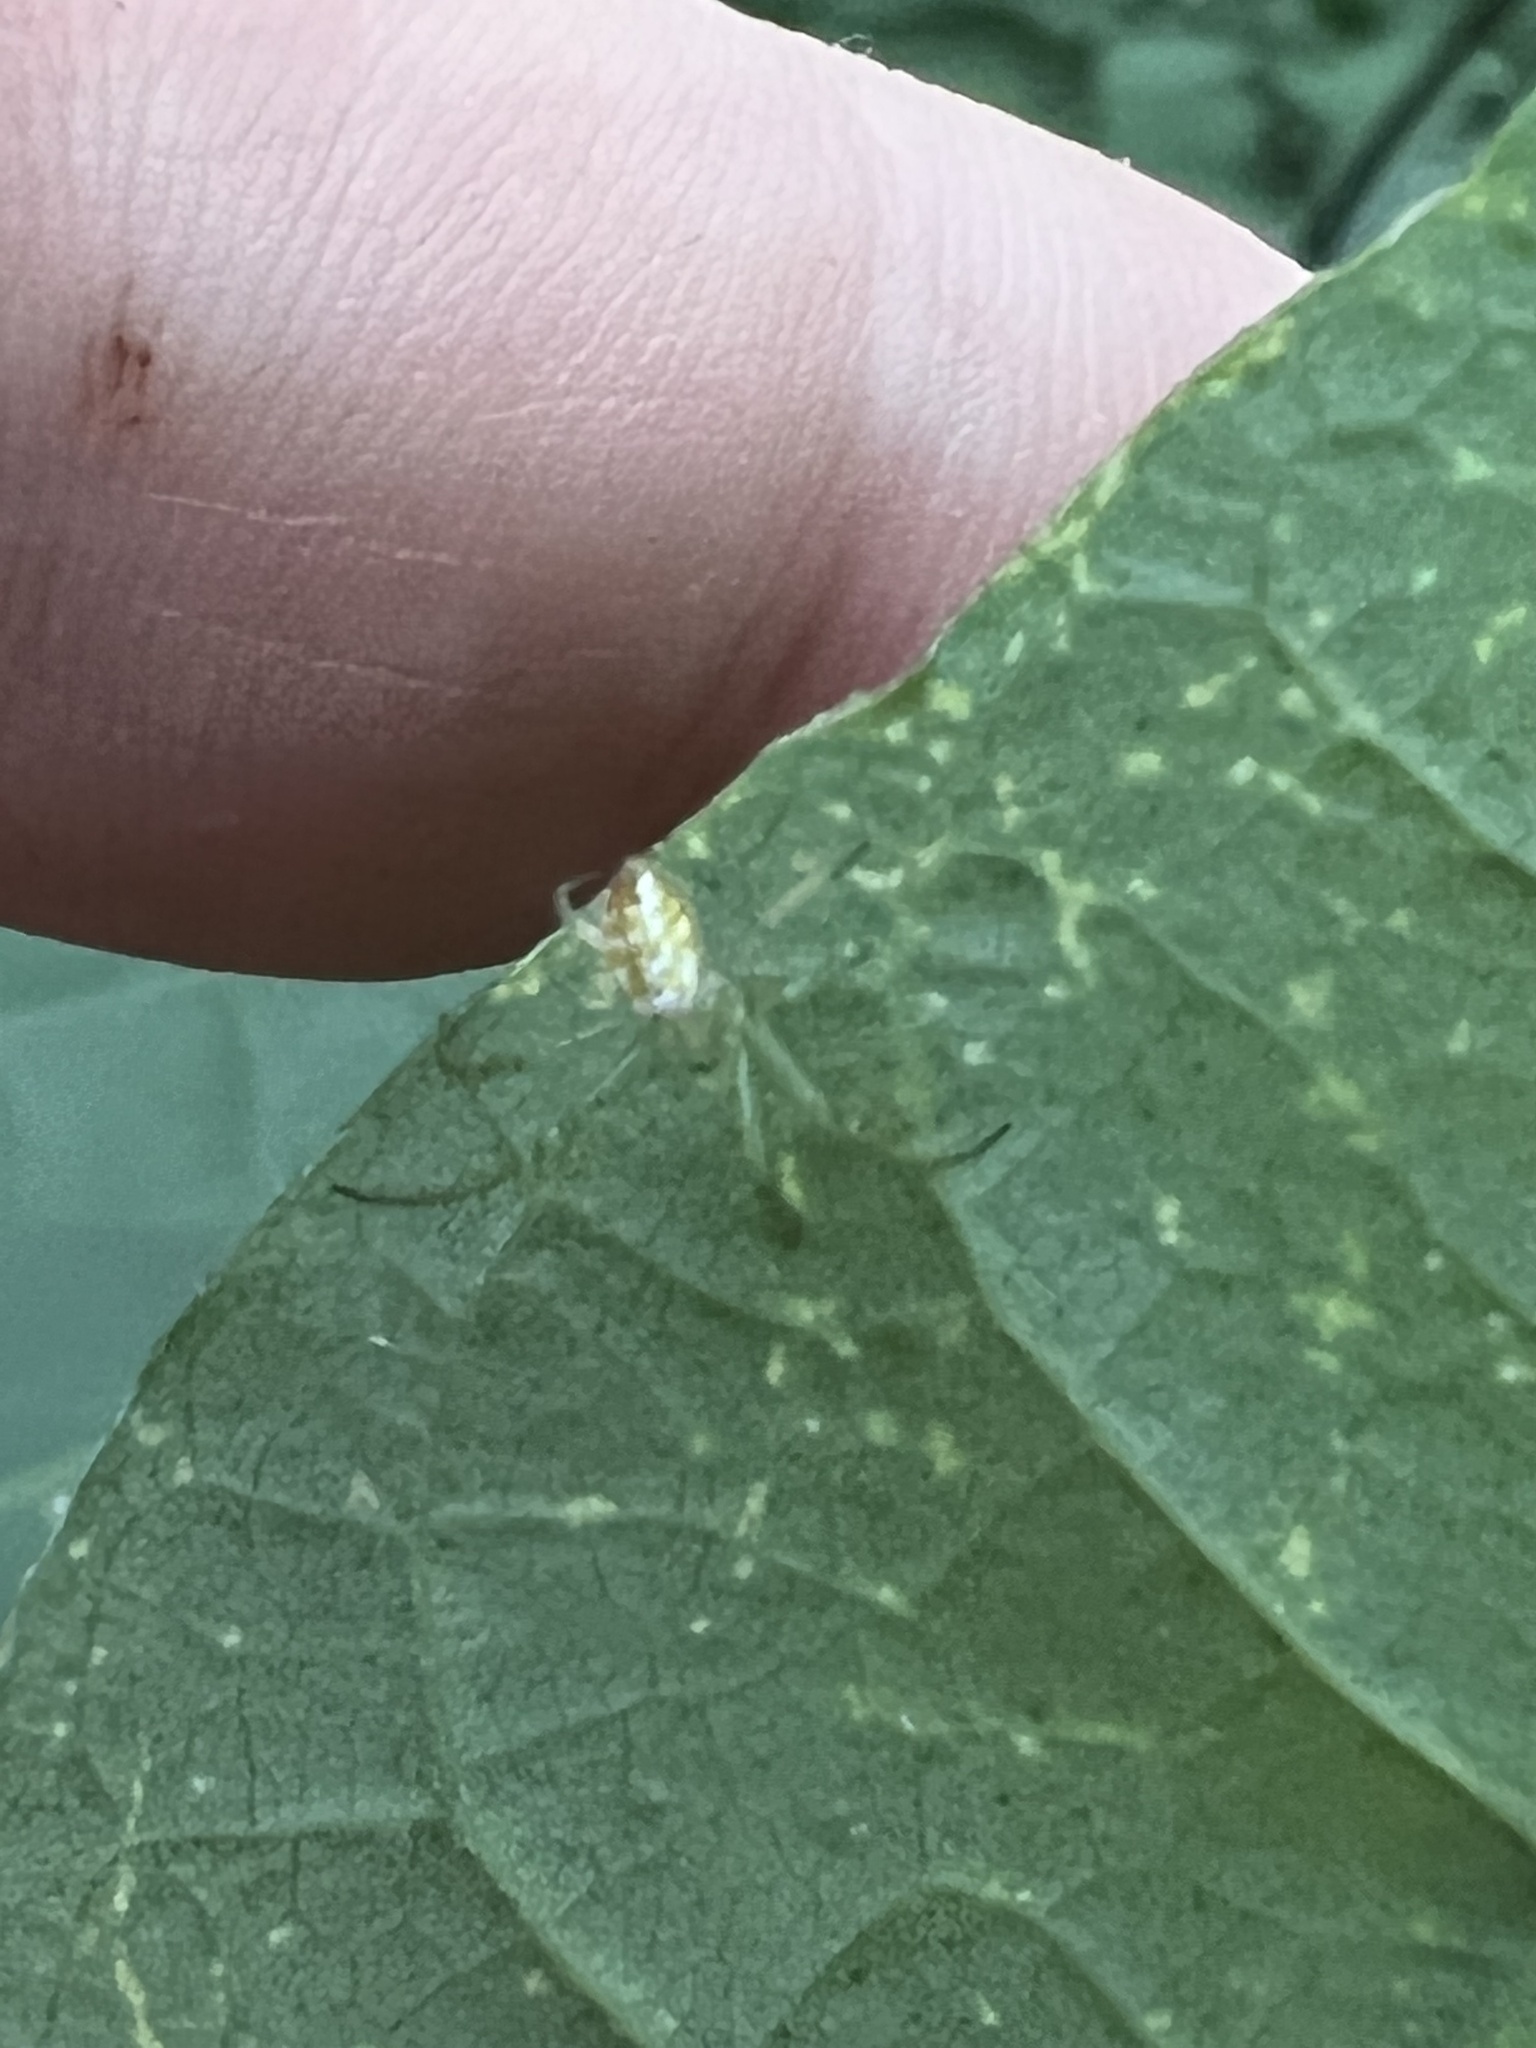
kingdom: Animalia
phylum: Arthropoda
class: Arachnida
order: Araneae
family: Araneidae
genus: Mangora
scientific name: Mangora maculata
